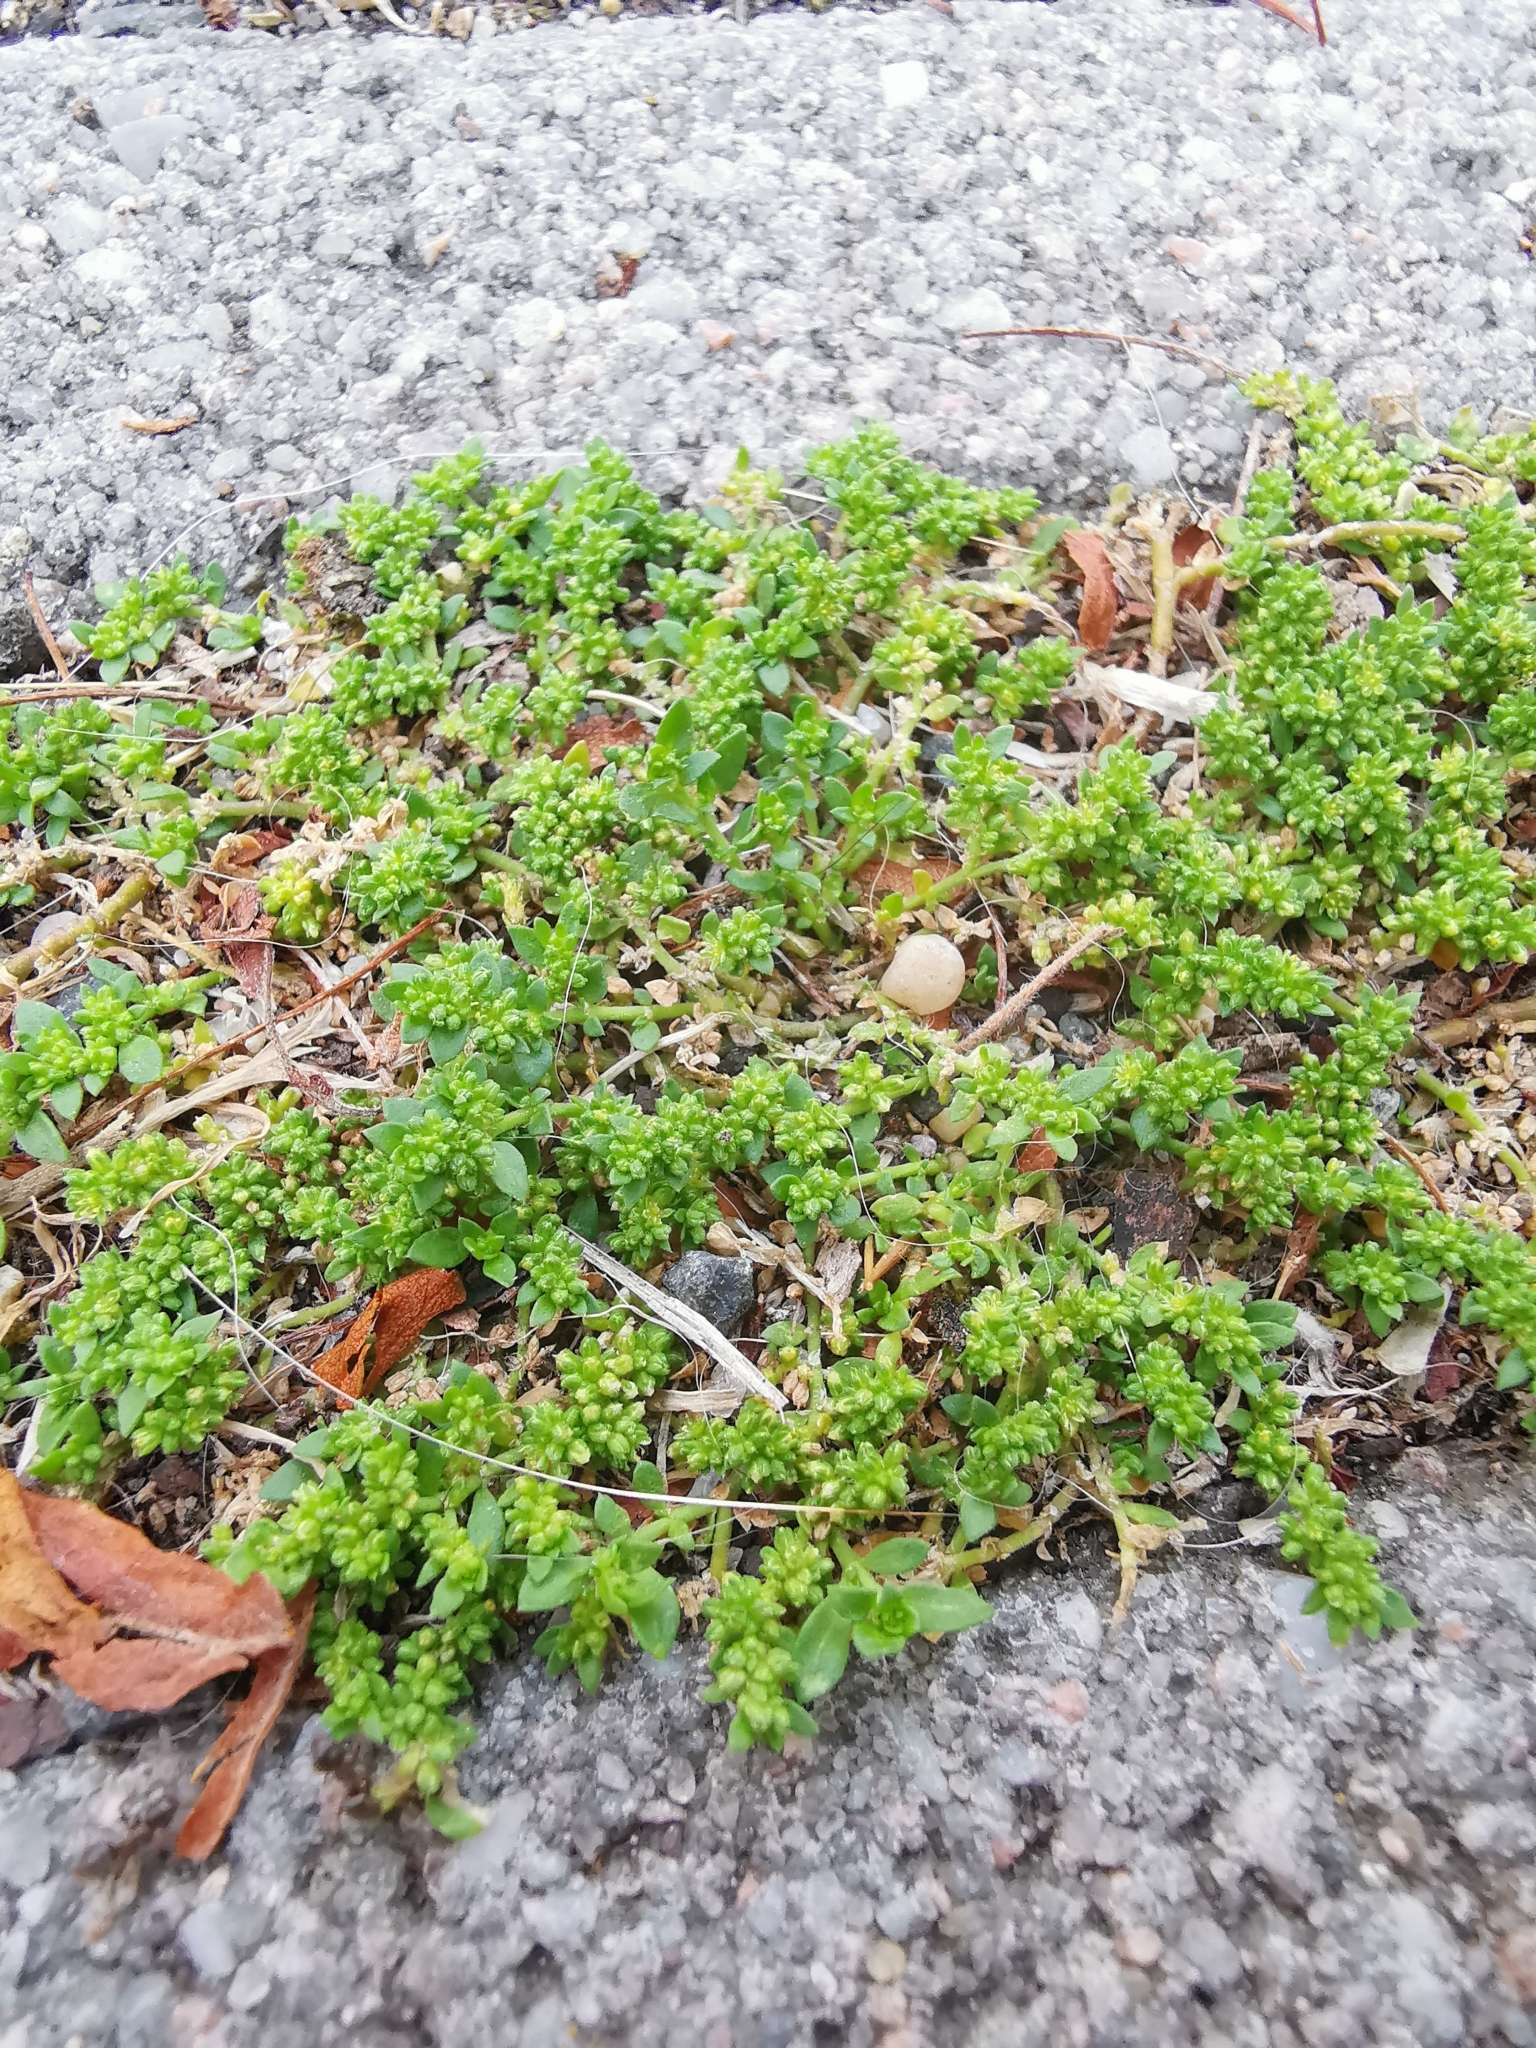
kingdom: Plantae
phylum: Tracheophyta
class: Magnoliopsida
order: Caryophyllales
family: Caryophyllaceae
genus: Herniaria
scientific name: Herniaria glabra
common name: Smooth rupturewort
